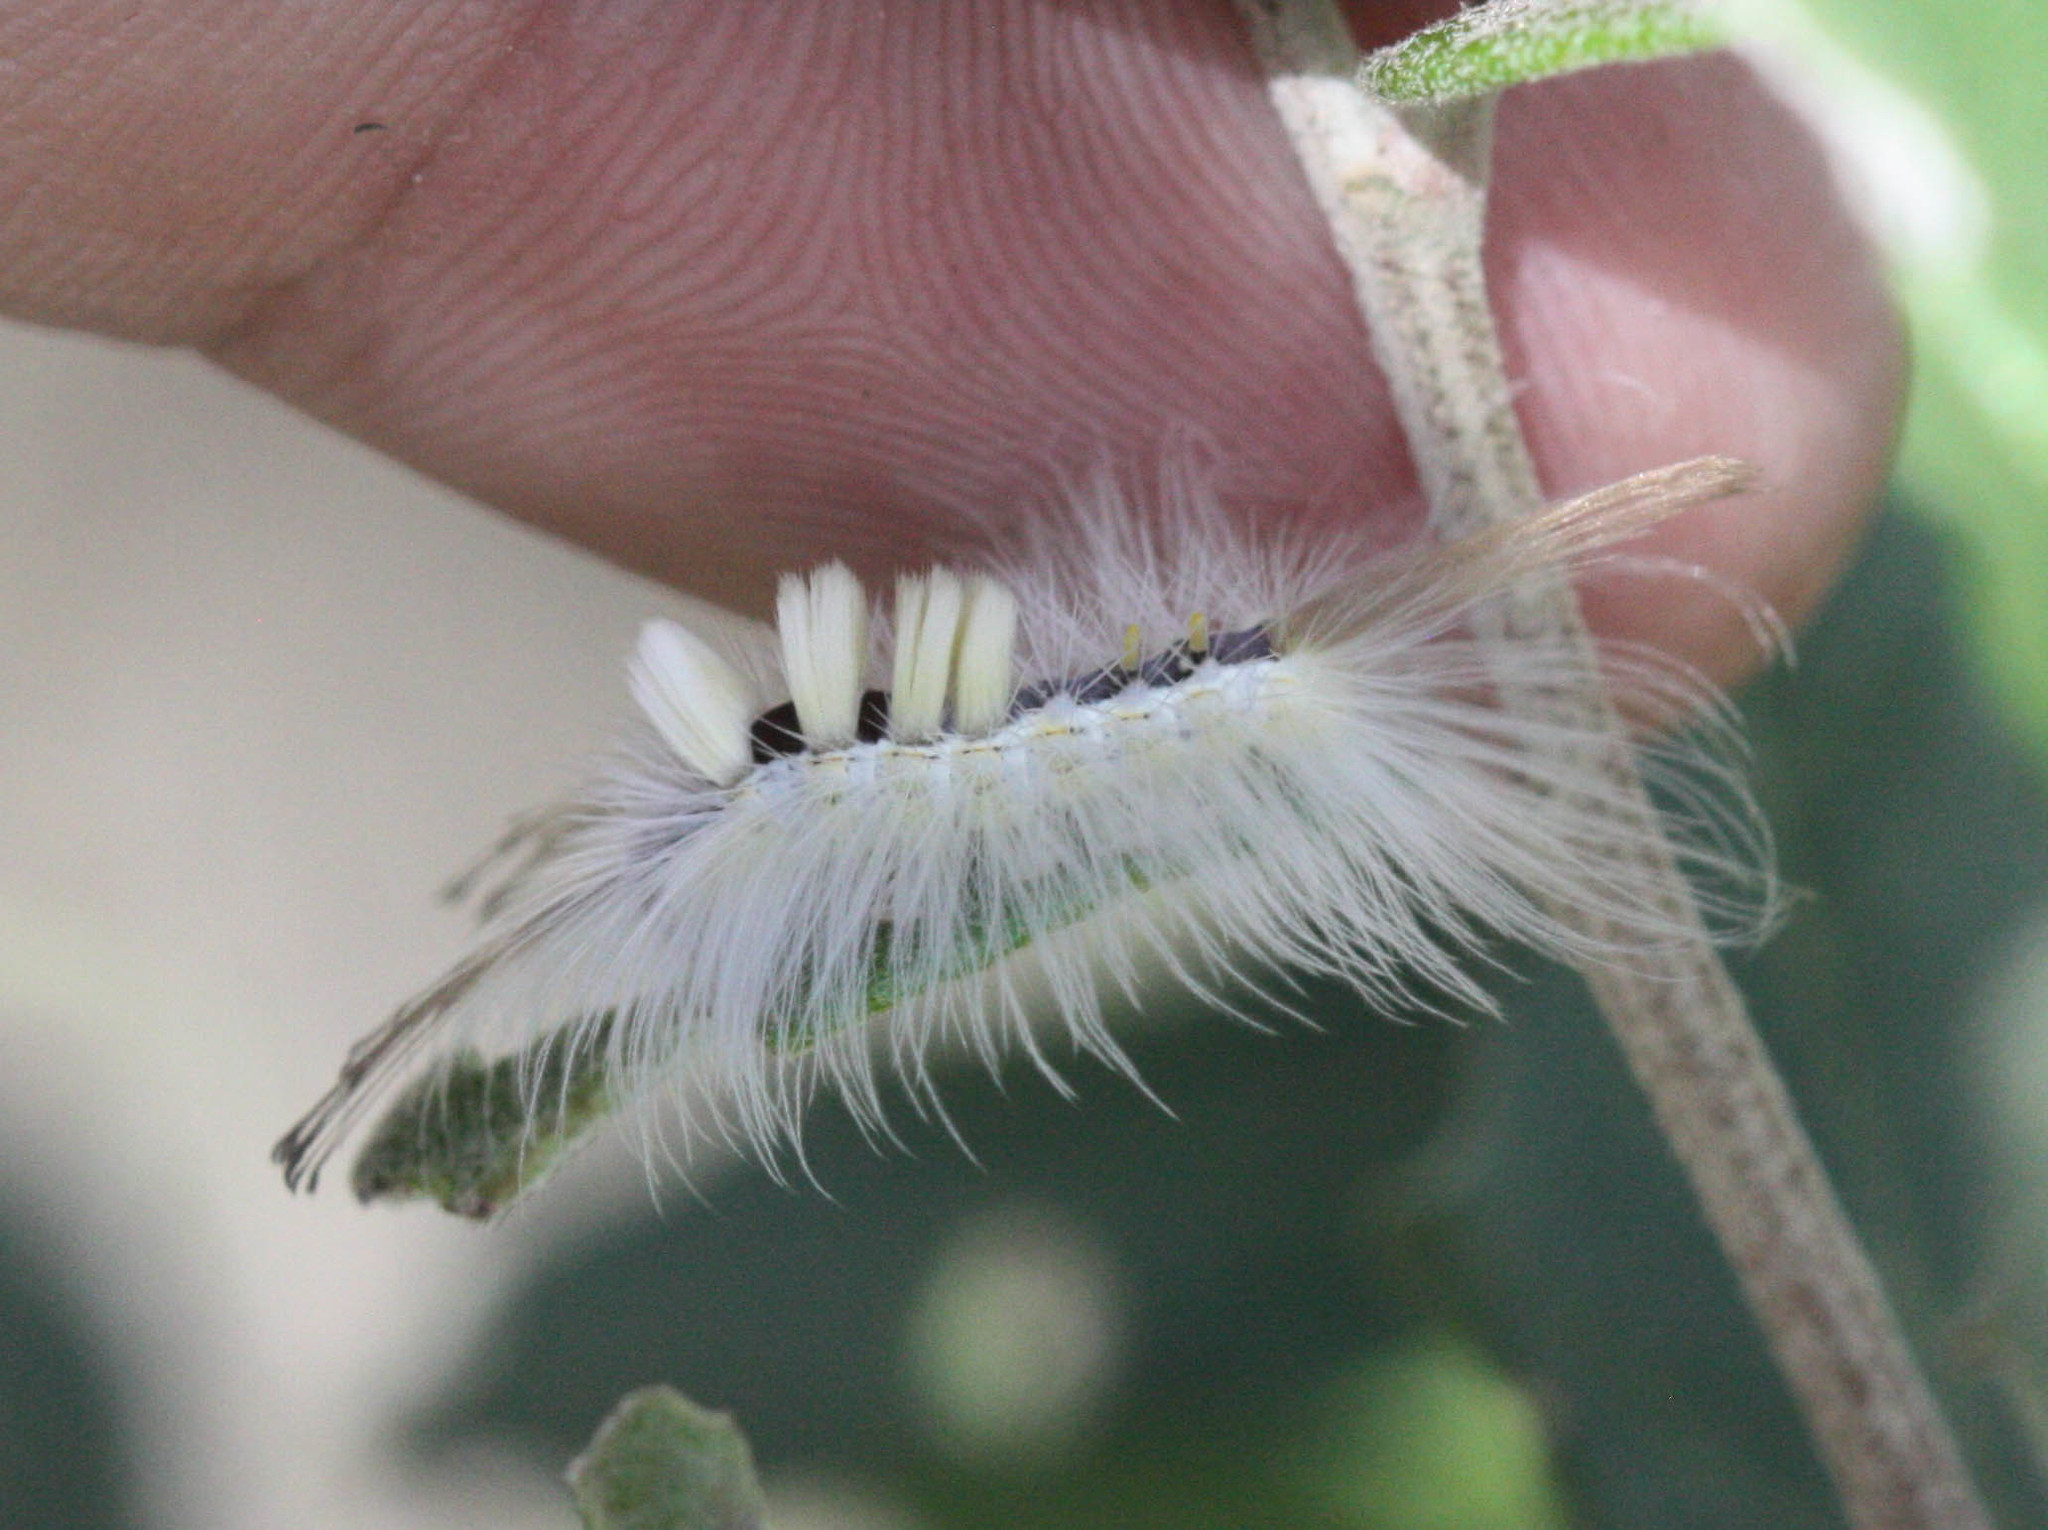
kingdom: Animalia
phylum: Arthropoda
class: Insecta
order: Lepidoptera
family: Erebidae
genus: Orgyia
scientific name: Orgyia falcata
